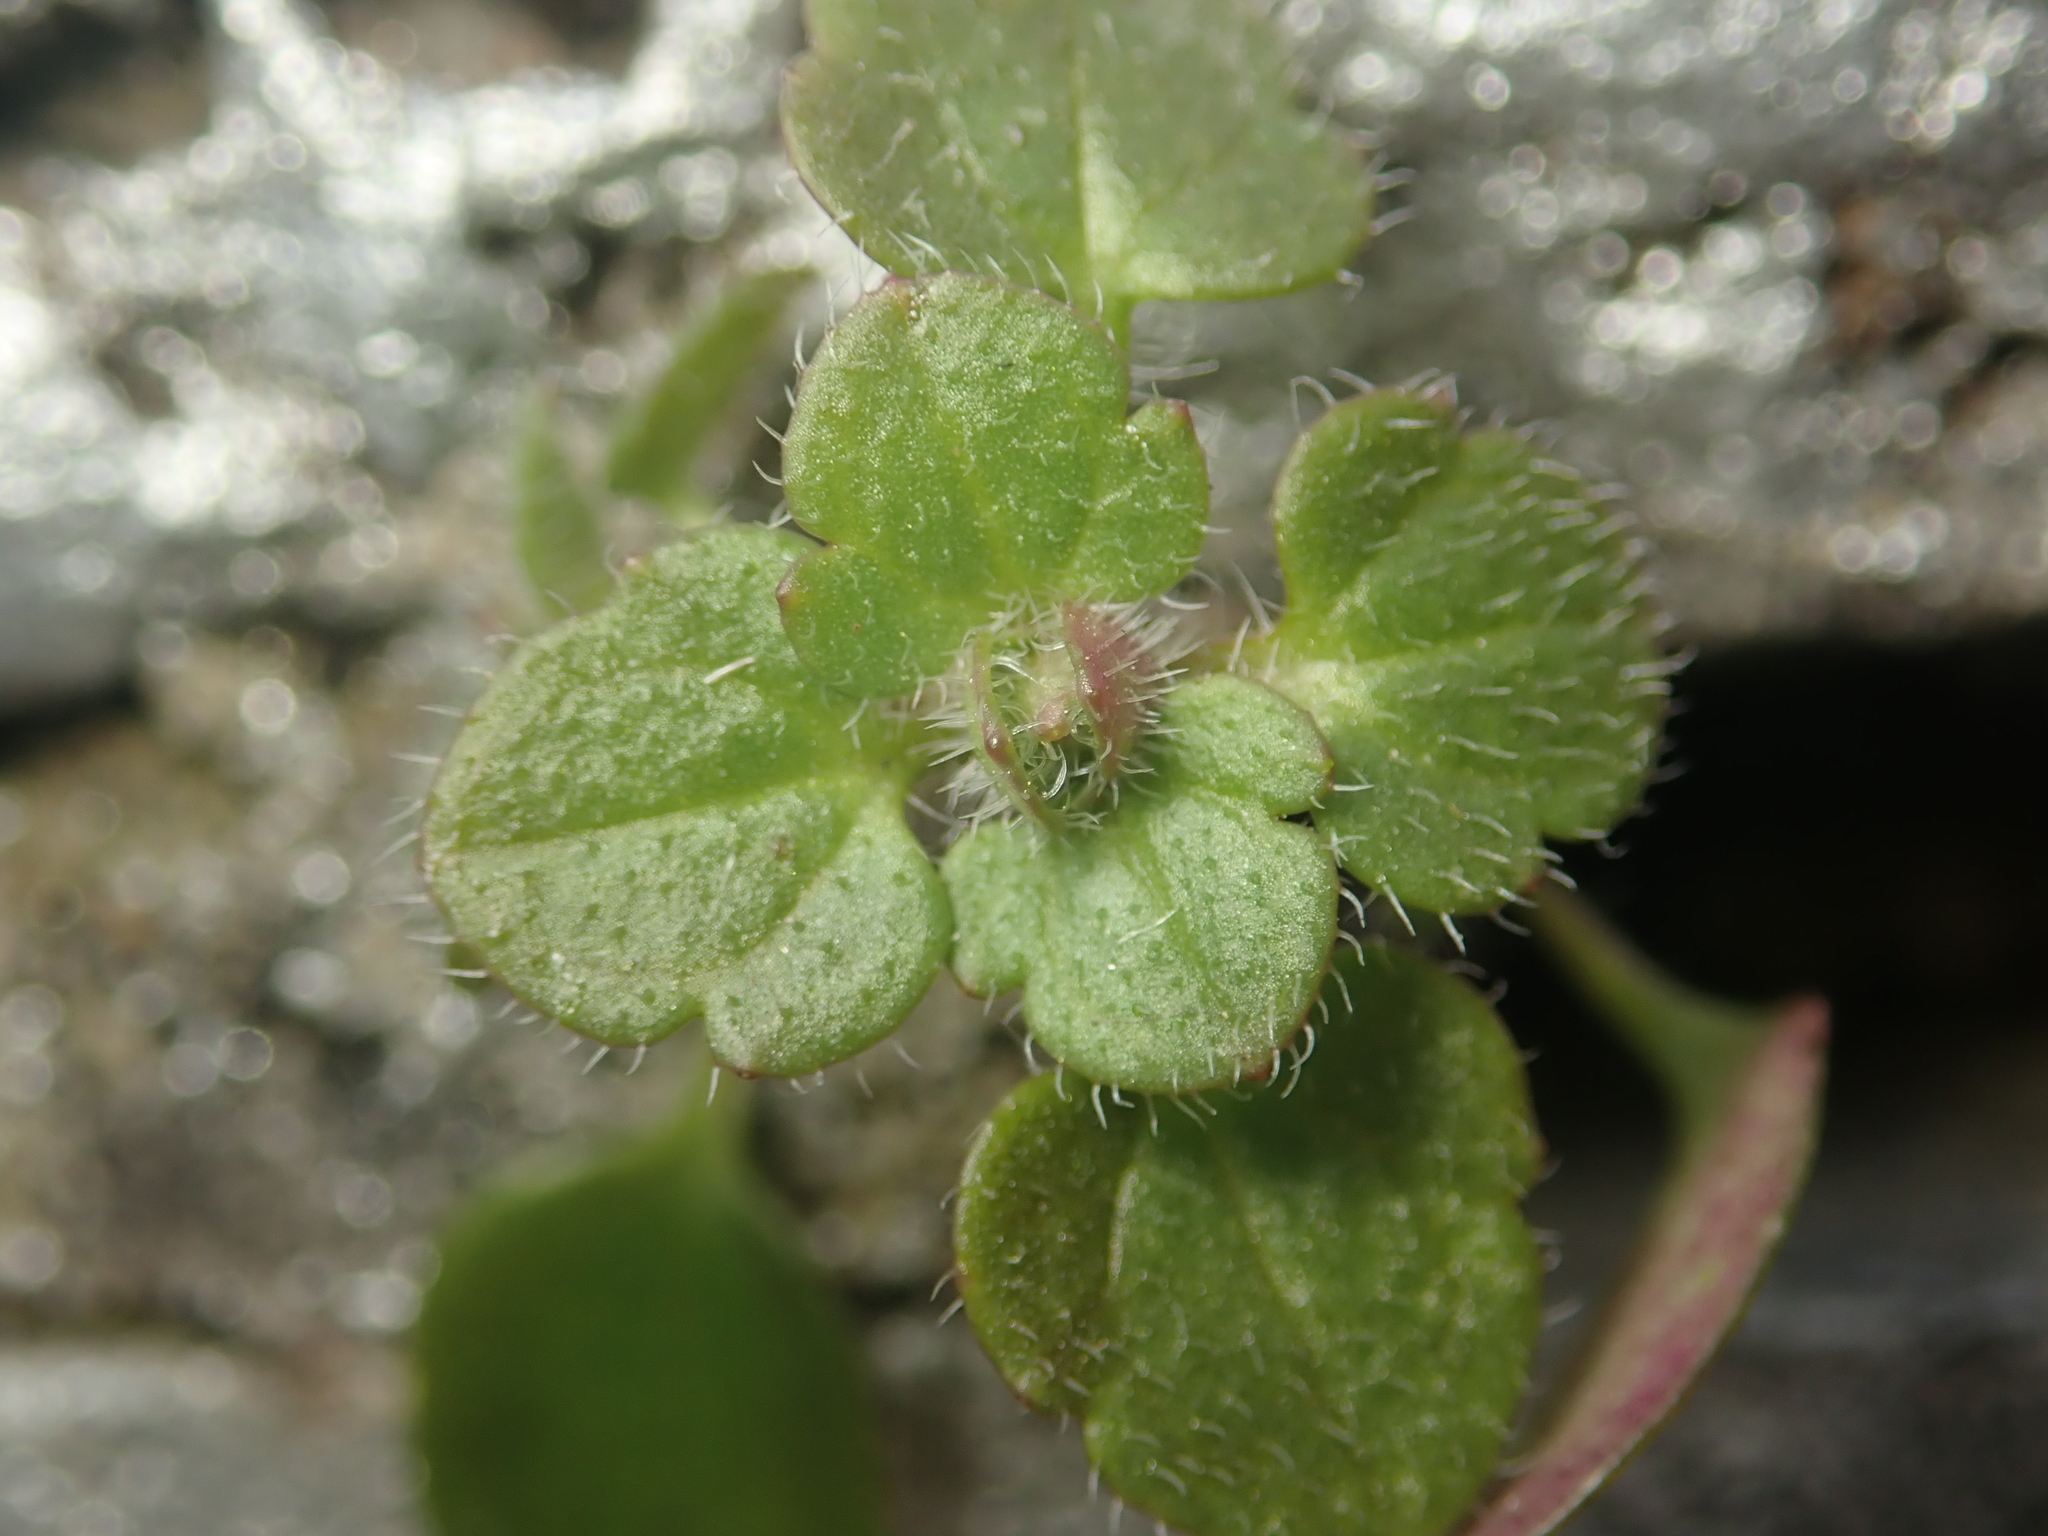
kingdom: Plantae
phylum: Tracheophyta
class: Magnoliopsida
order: Lamiales
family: Plantaginaceae
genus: Veronica
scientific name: Veronica hederifolia
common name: Ivy-leaved speedwell
